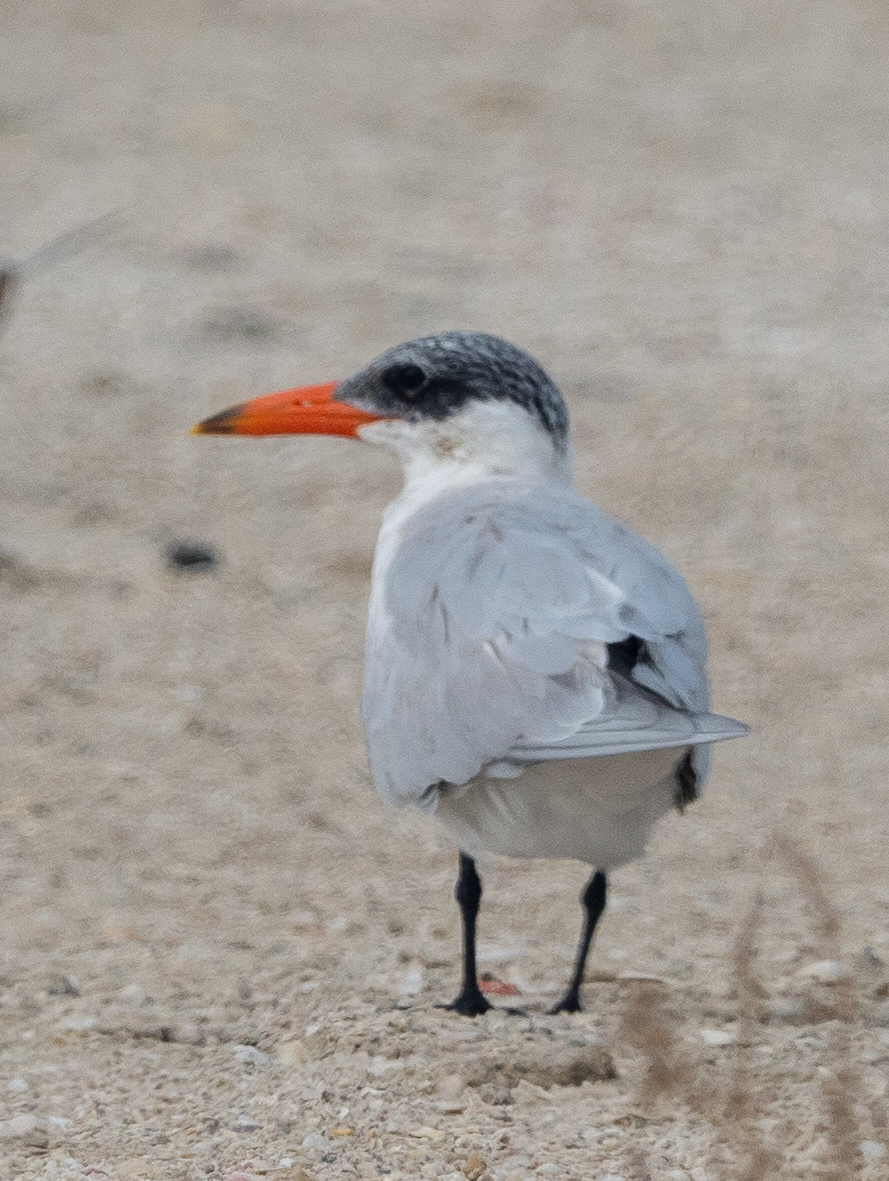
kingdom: Animalia
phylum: Chordata
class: Aves
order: Charadriiformes
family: Laridae
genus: Hydroprogne
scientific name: Hydroprogne caspia
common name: Caspian tern
